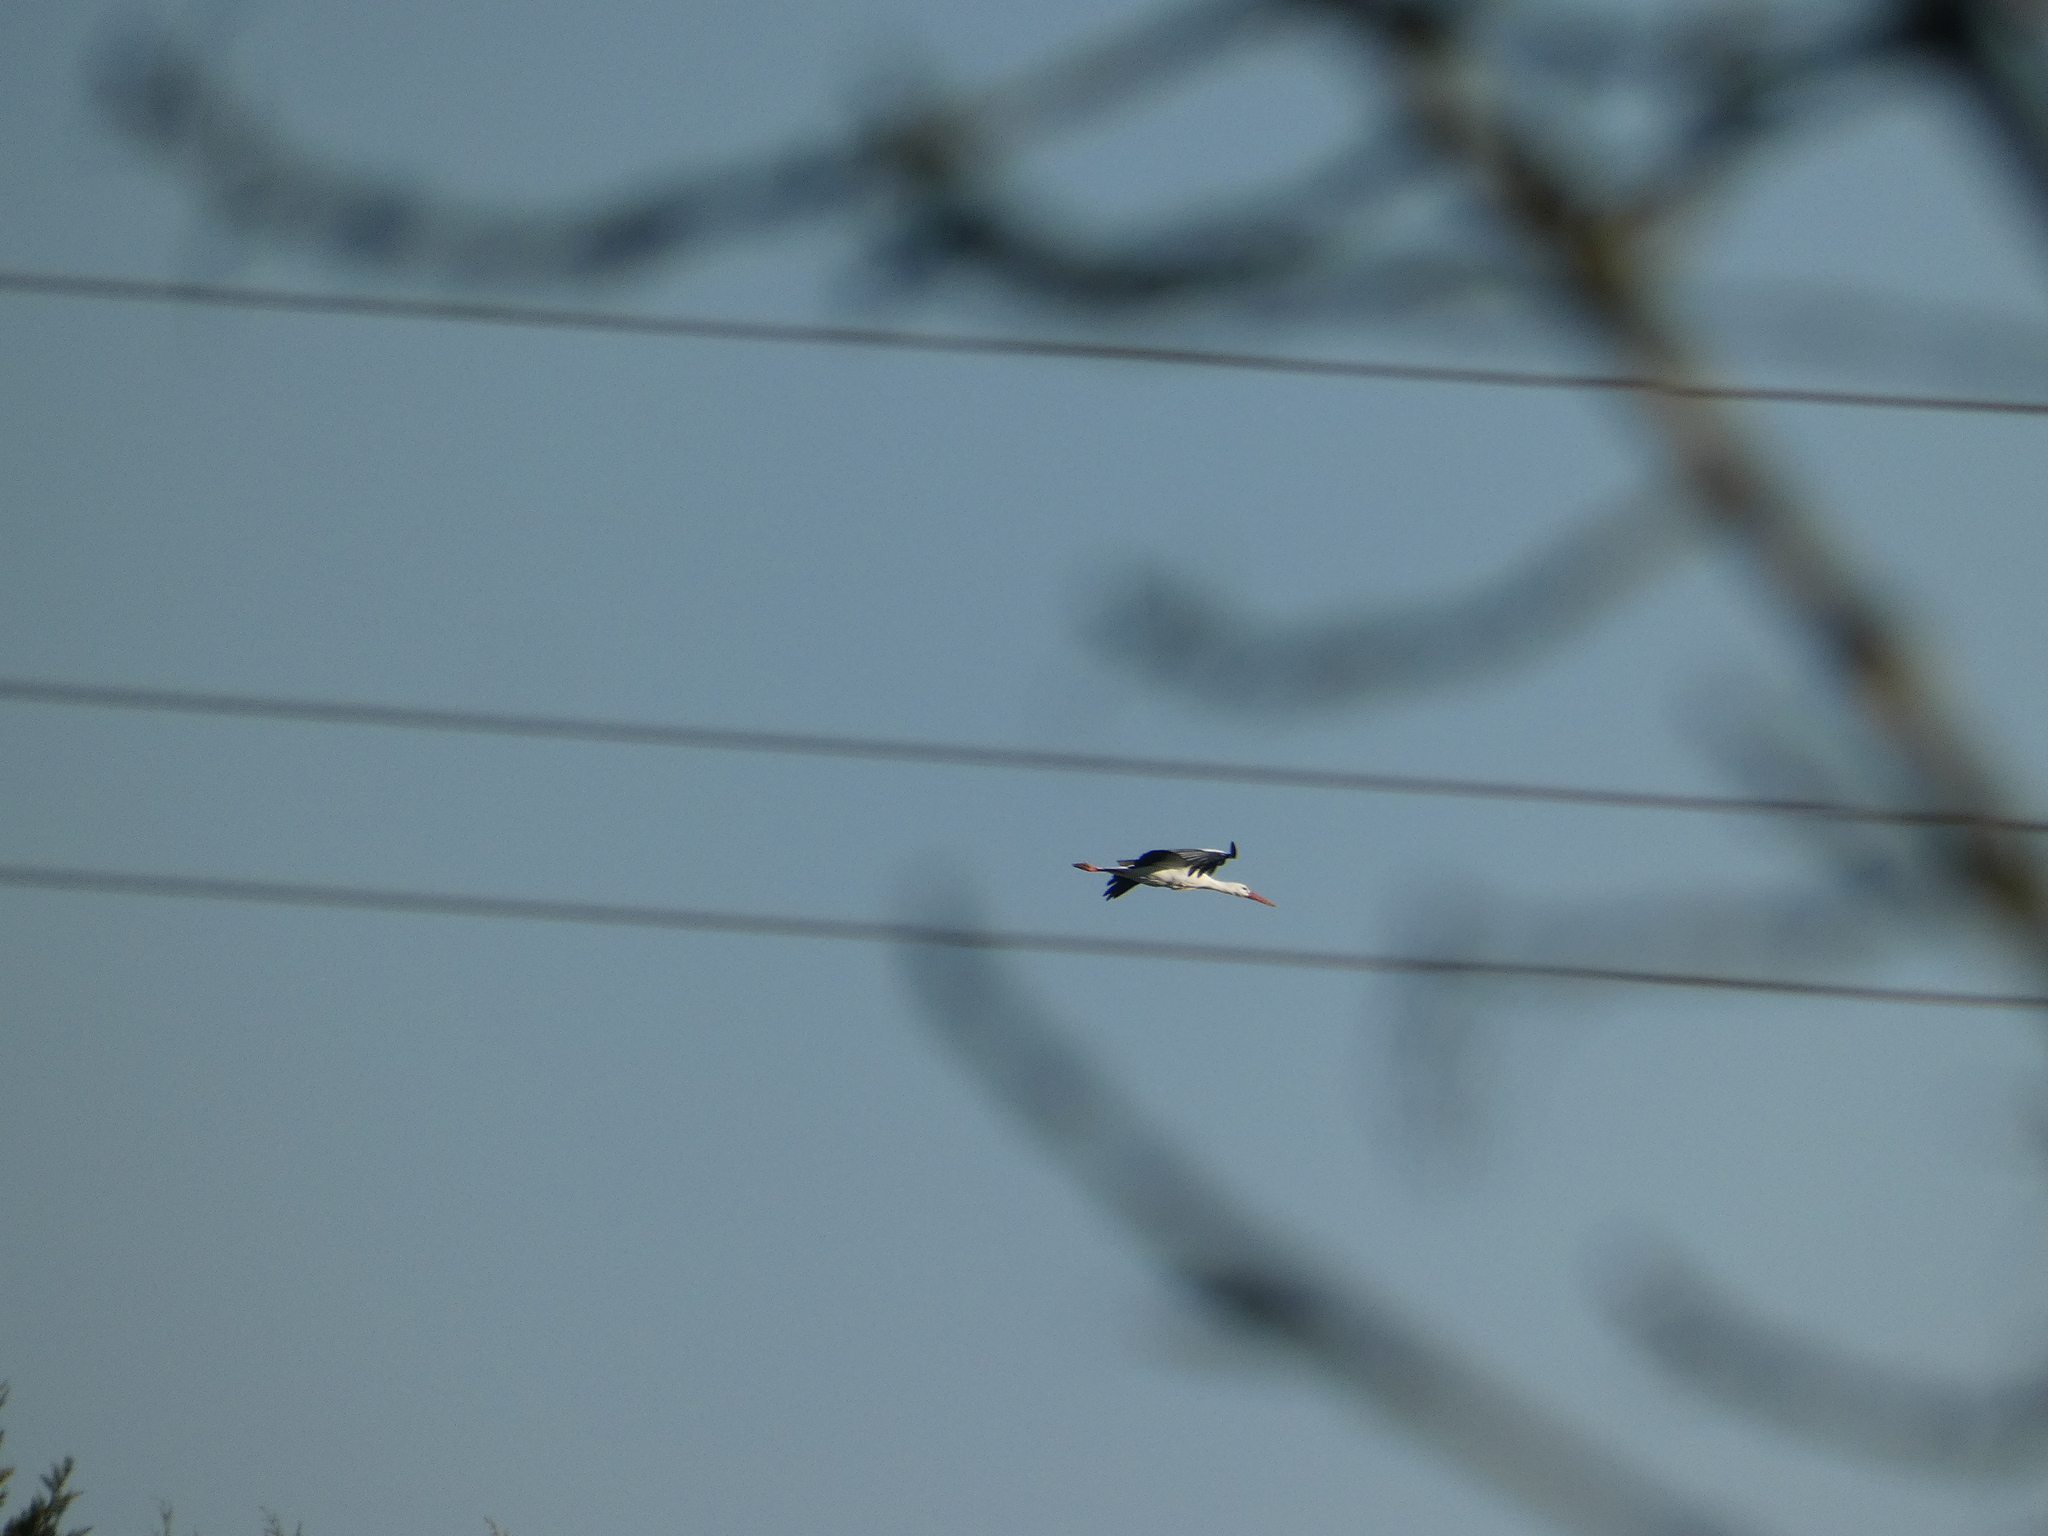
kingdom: Animalia
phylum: Chordata
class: Aves
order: Ciconiiformes
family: Ciconiidae
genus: Ciconia
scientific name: Ciconia ciconia
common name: White stork
